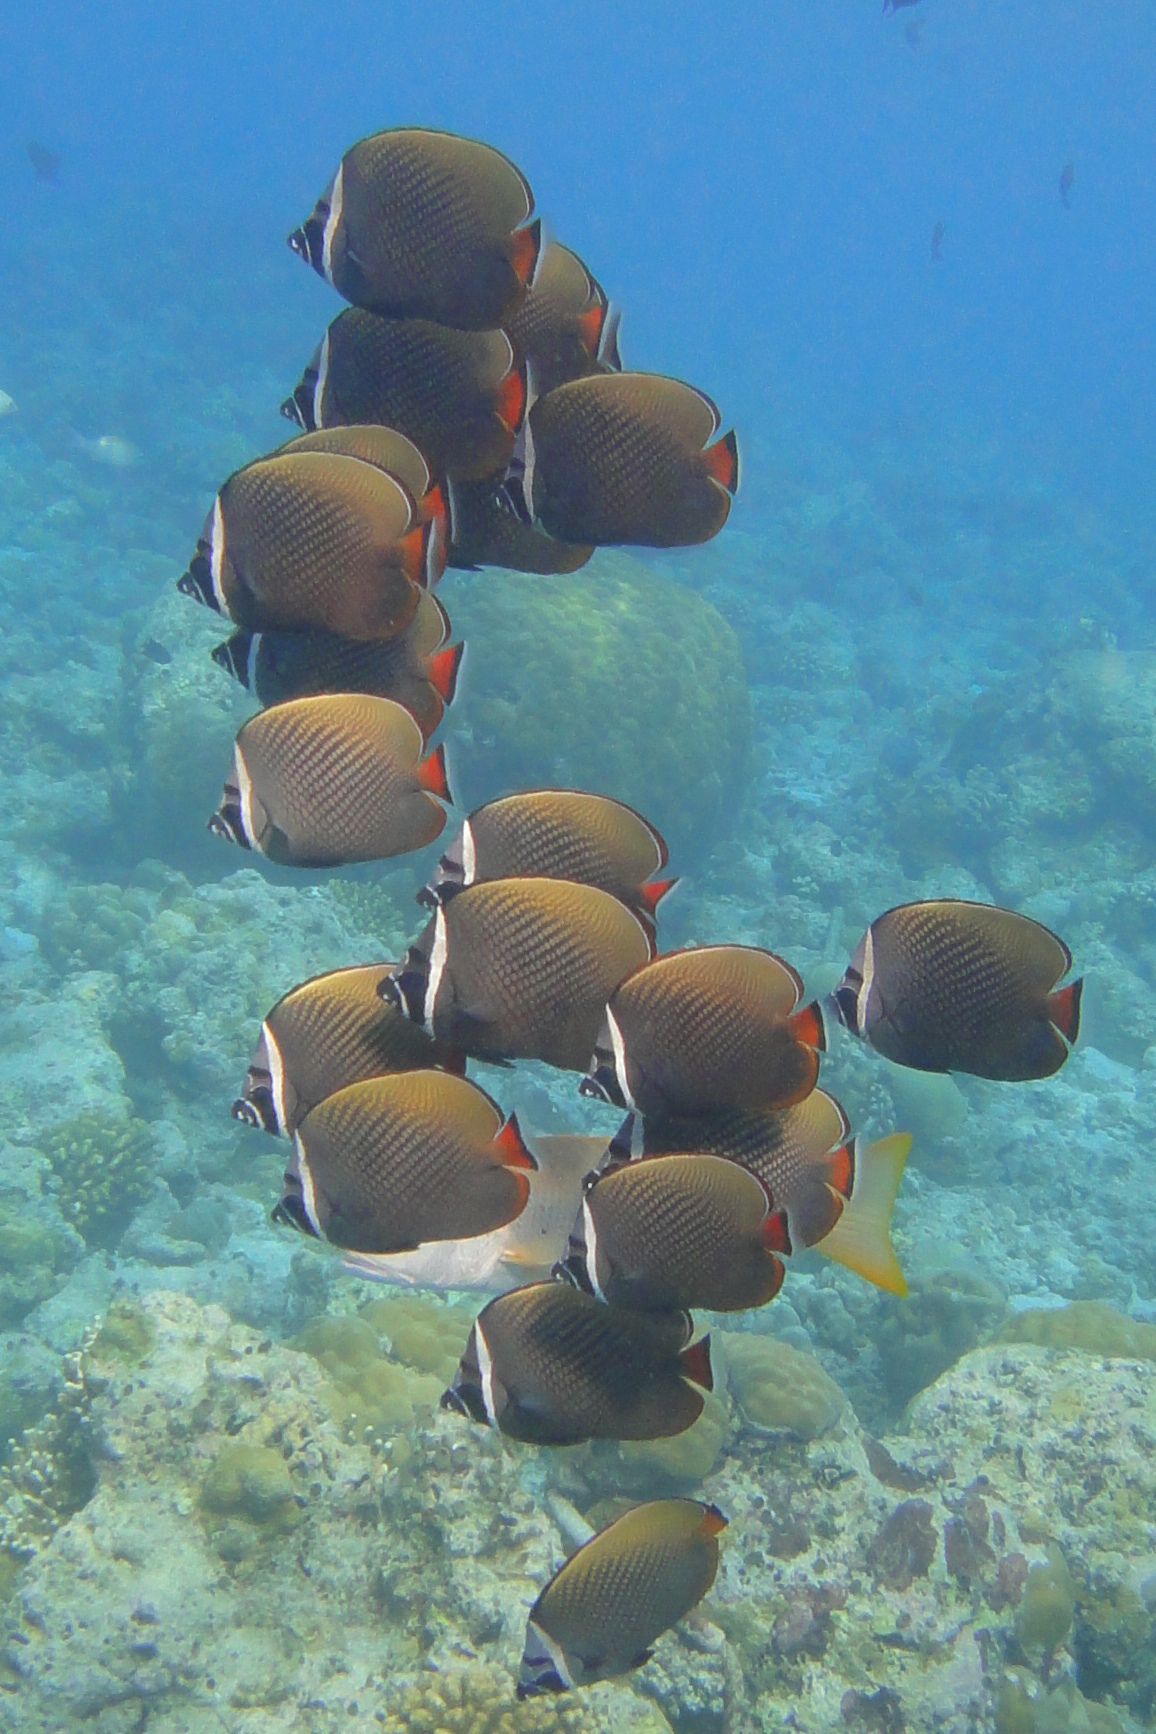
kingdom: Animalia
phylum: Chordata
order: Perciformes
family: Chaetodontidae
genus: Chaetodon
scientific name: Chaetodon collare
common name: Redtail butterflyfish
